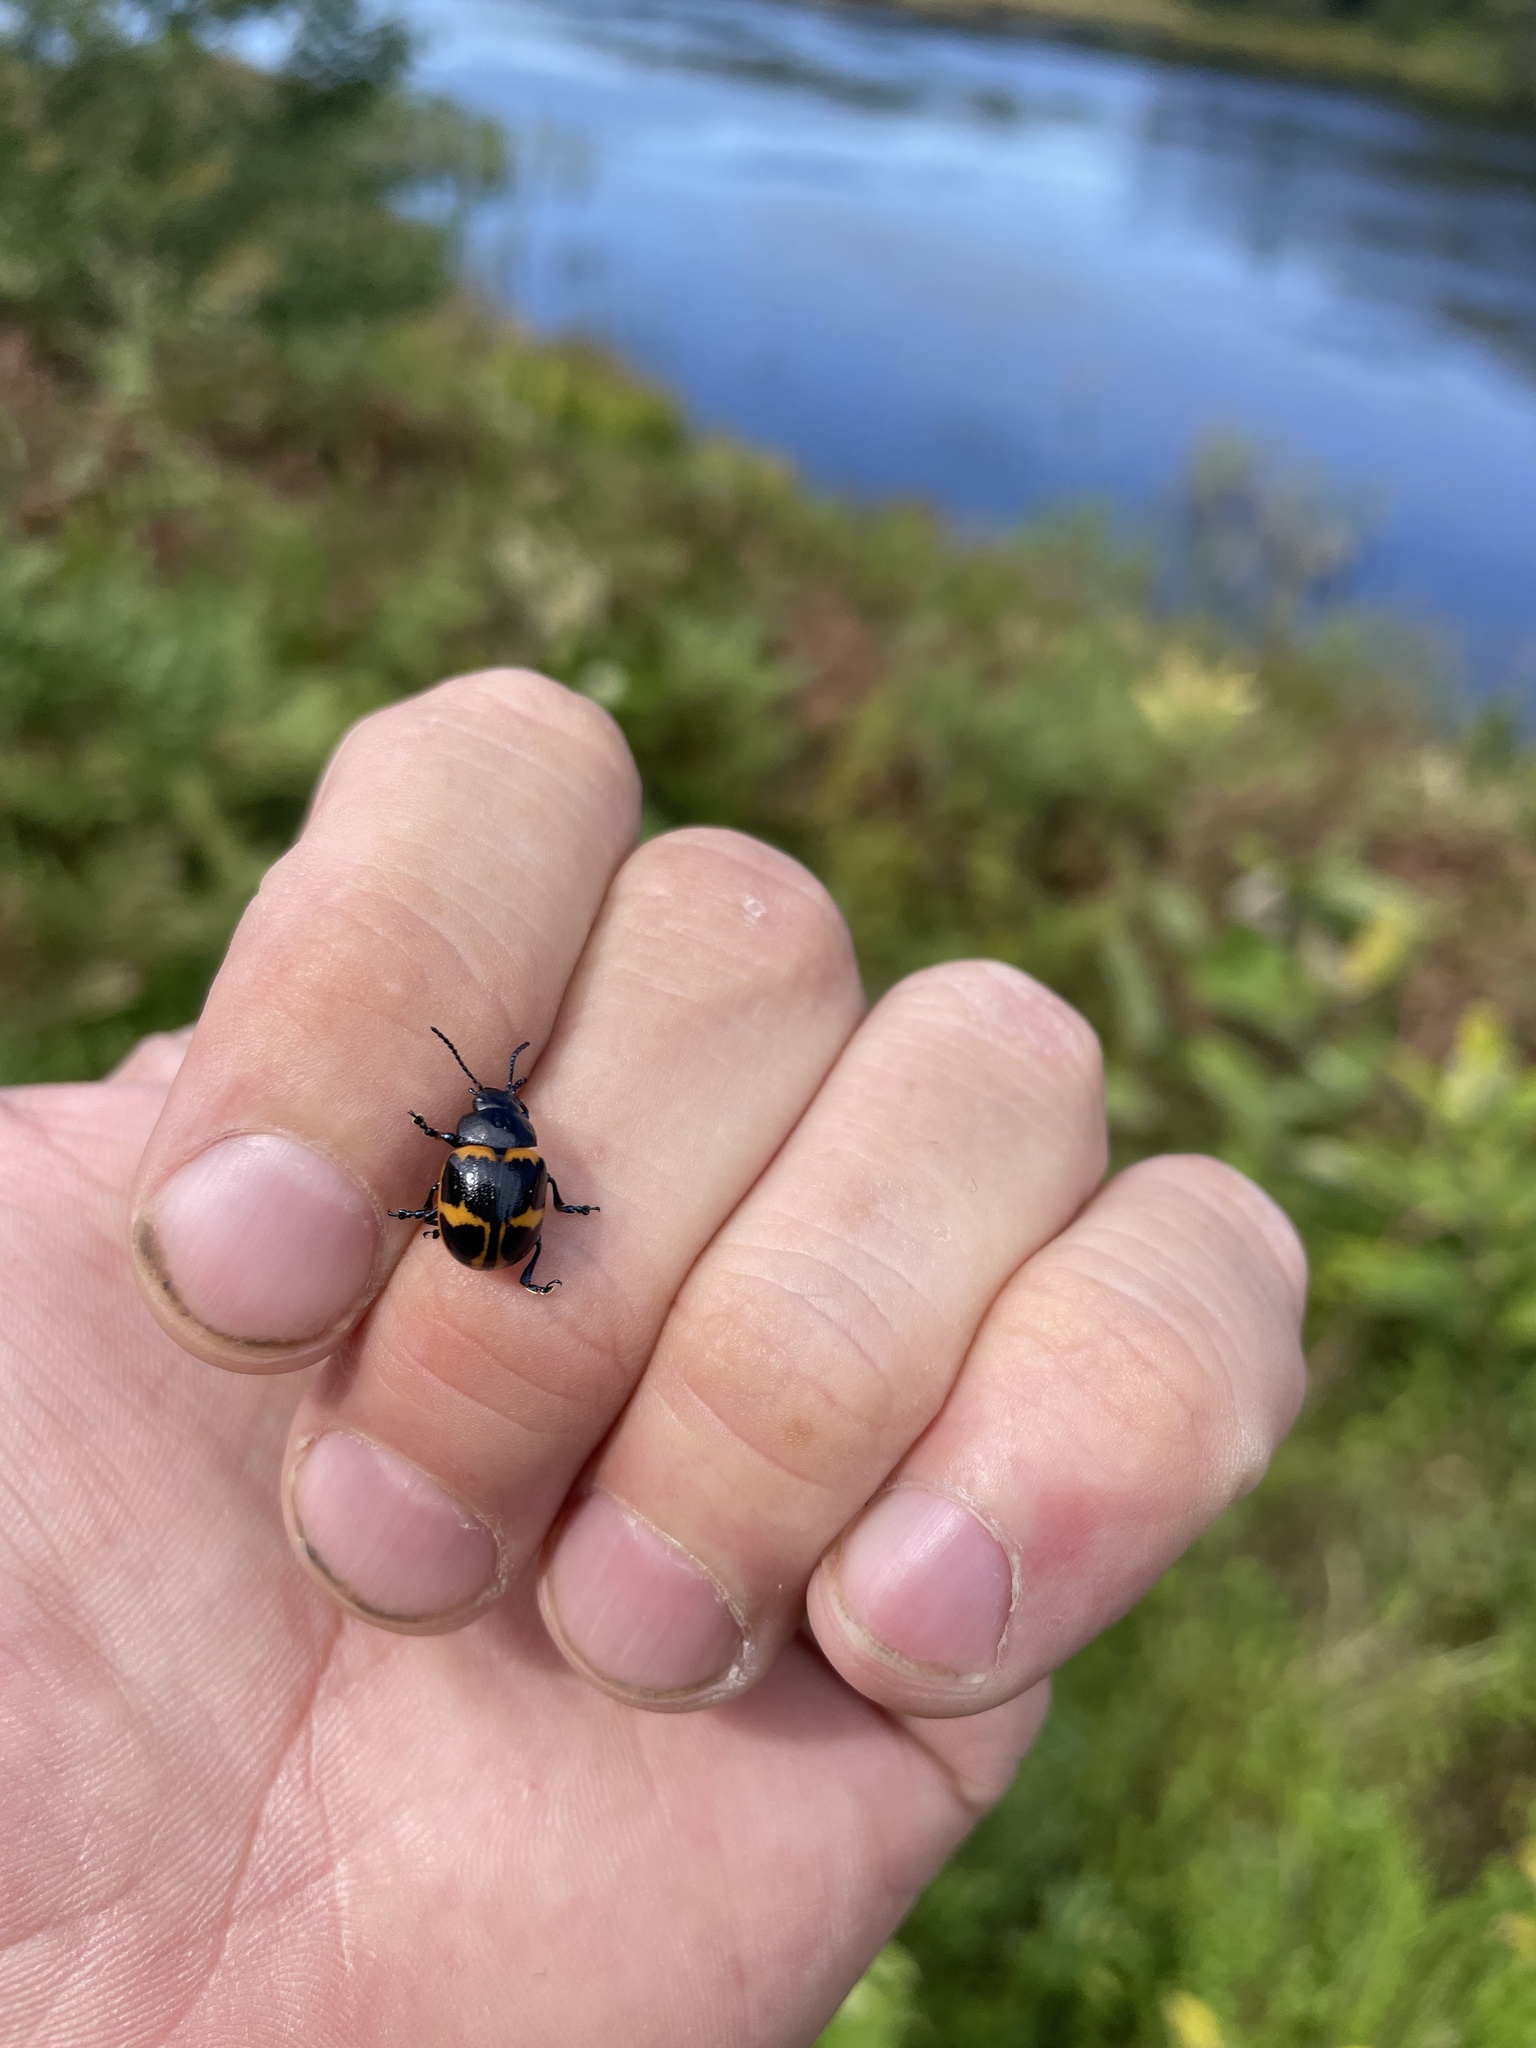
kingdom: Animalia
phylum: Arthropoda
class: Insecta
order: Coleoptera
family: Chrysomelidae
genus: Labidomera
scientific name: Labidomera clivicollis
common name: Swamp milkweed leaf beetle
